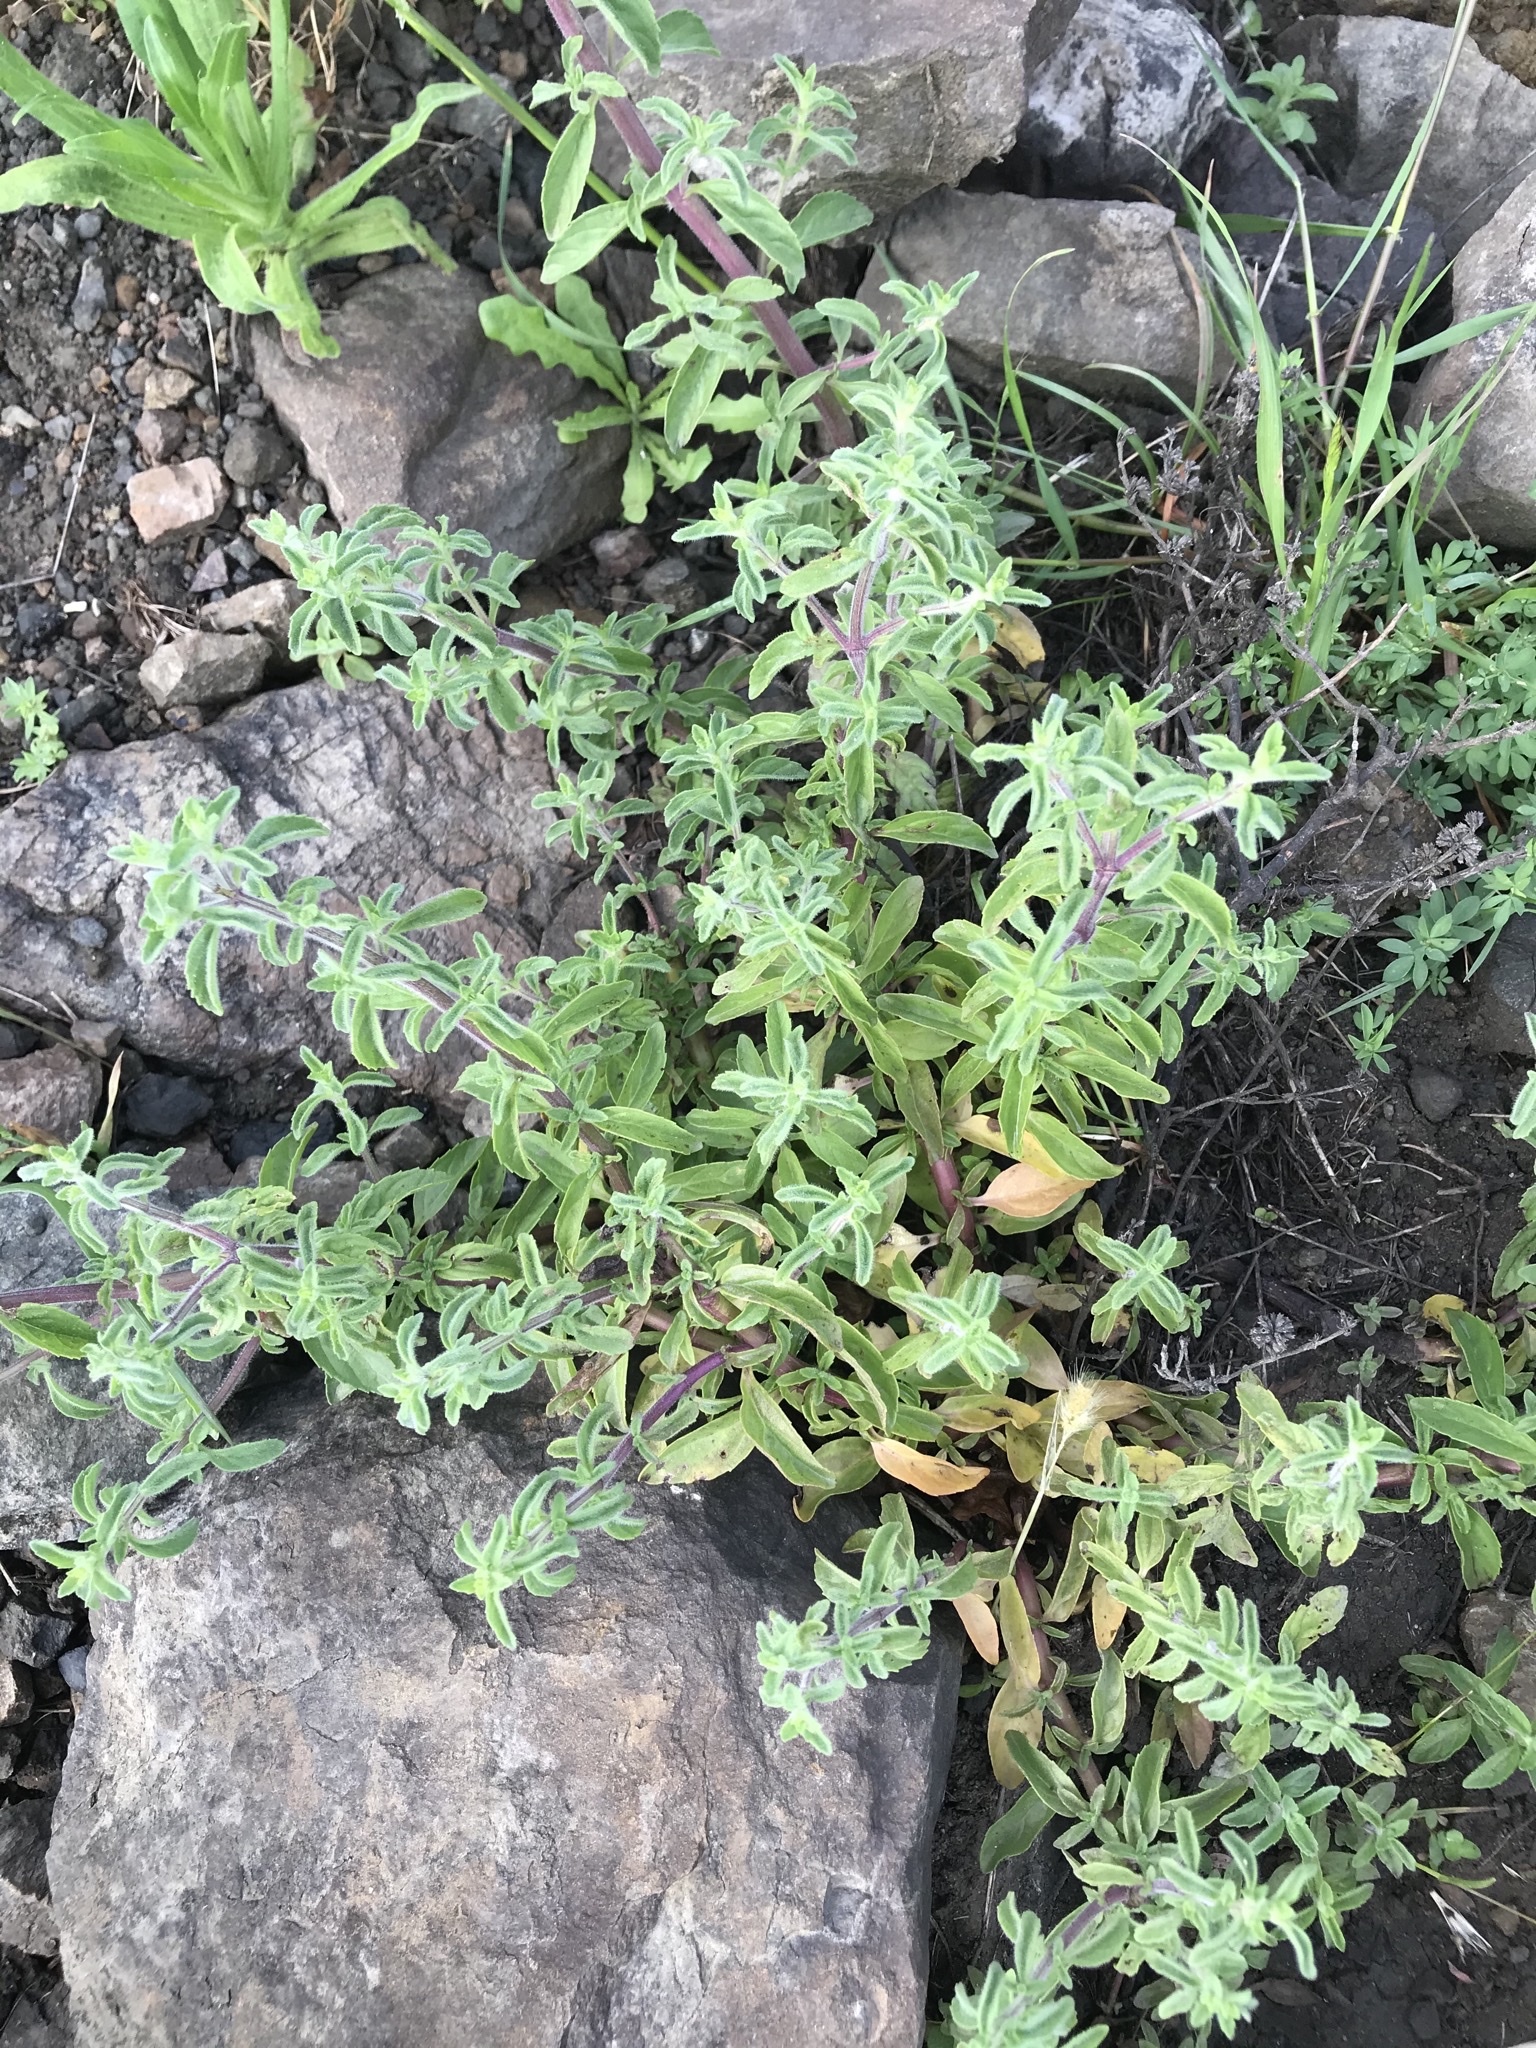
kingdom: Plantae
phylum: Tracheophyta
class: Magnoliopsida
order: Lamiales
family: Lamiaceae
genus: Mentha
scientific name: Mentha pulegium
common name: Pennyroyal
